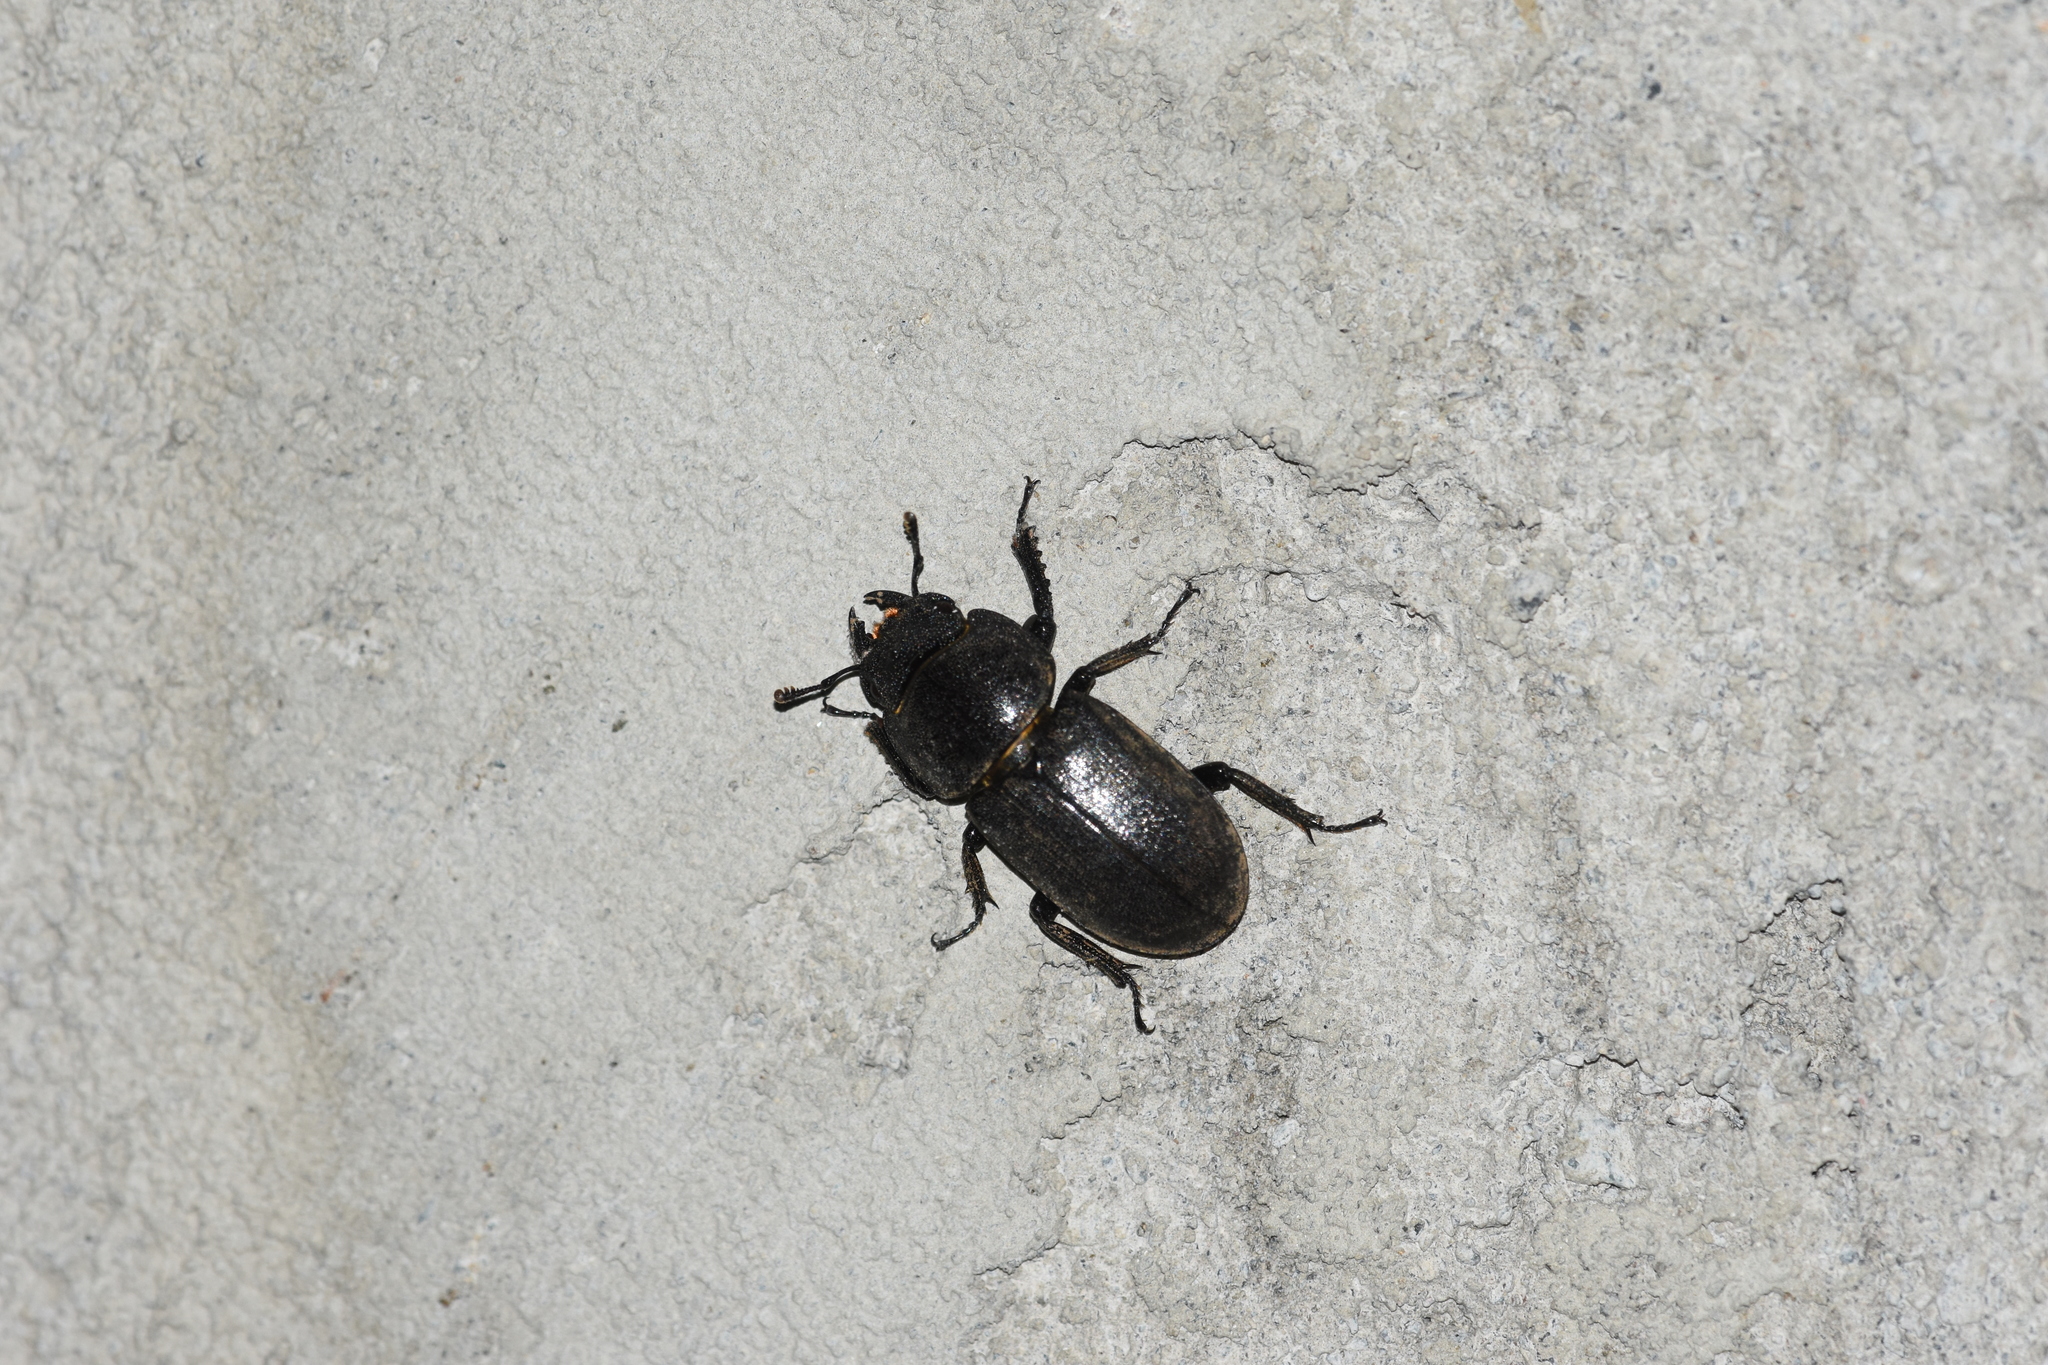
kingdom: Animalia
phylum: Arthropoda
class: Insecta
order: Coleoptera
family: Lucanidae
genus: Dorcus
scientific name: Dorcus parallelipipedus
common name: Lesser stag beetle
